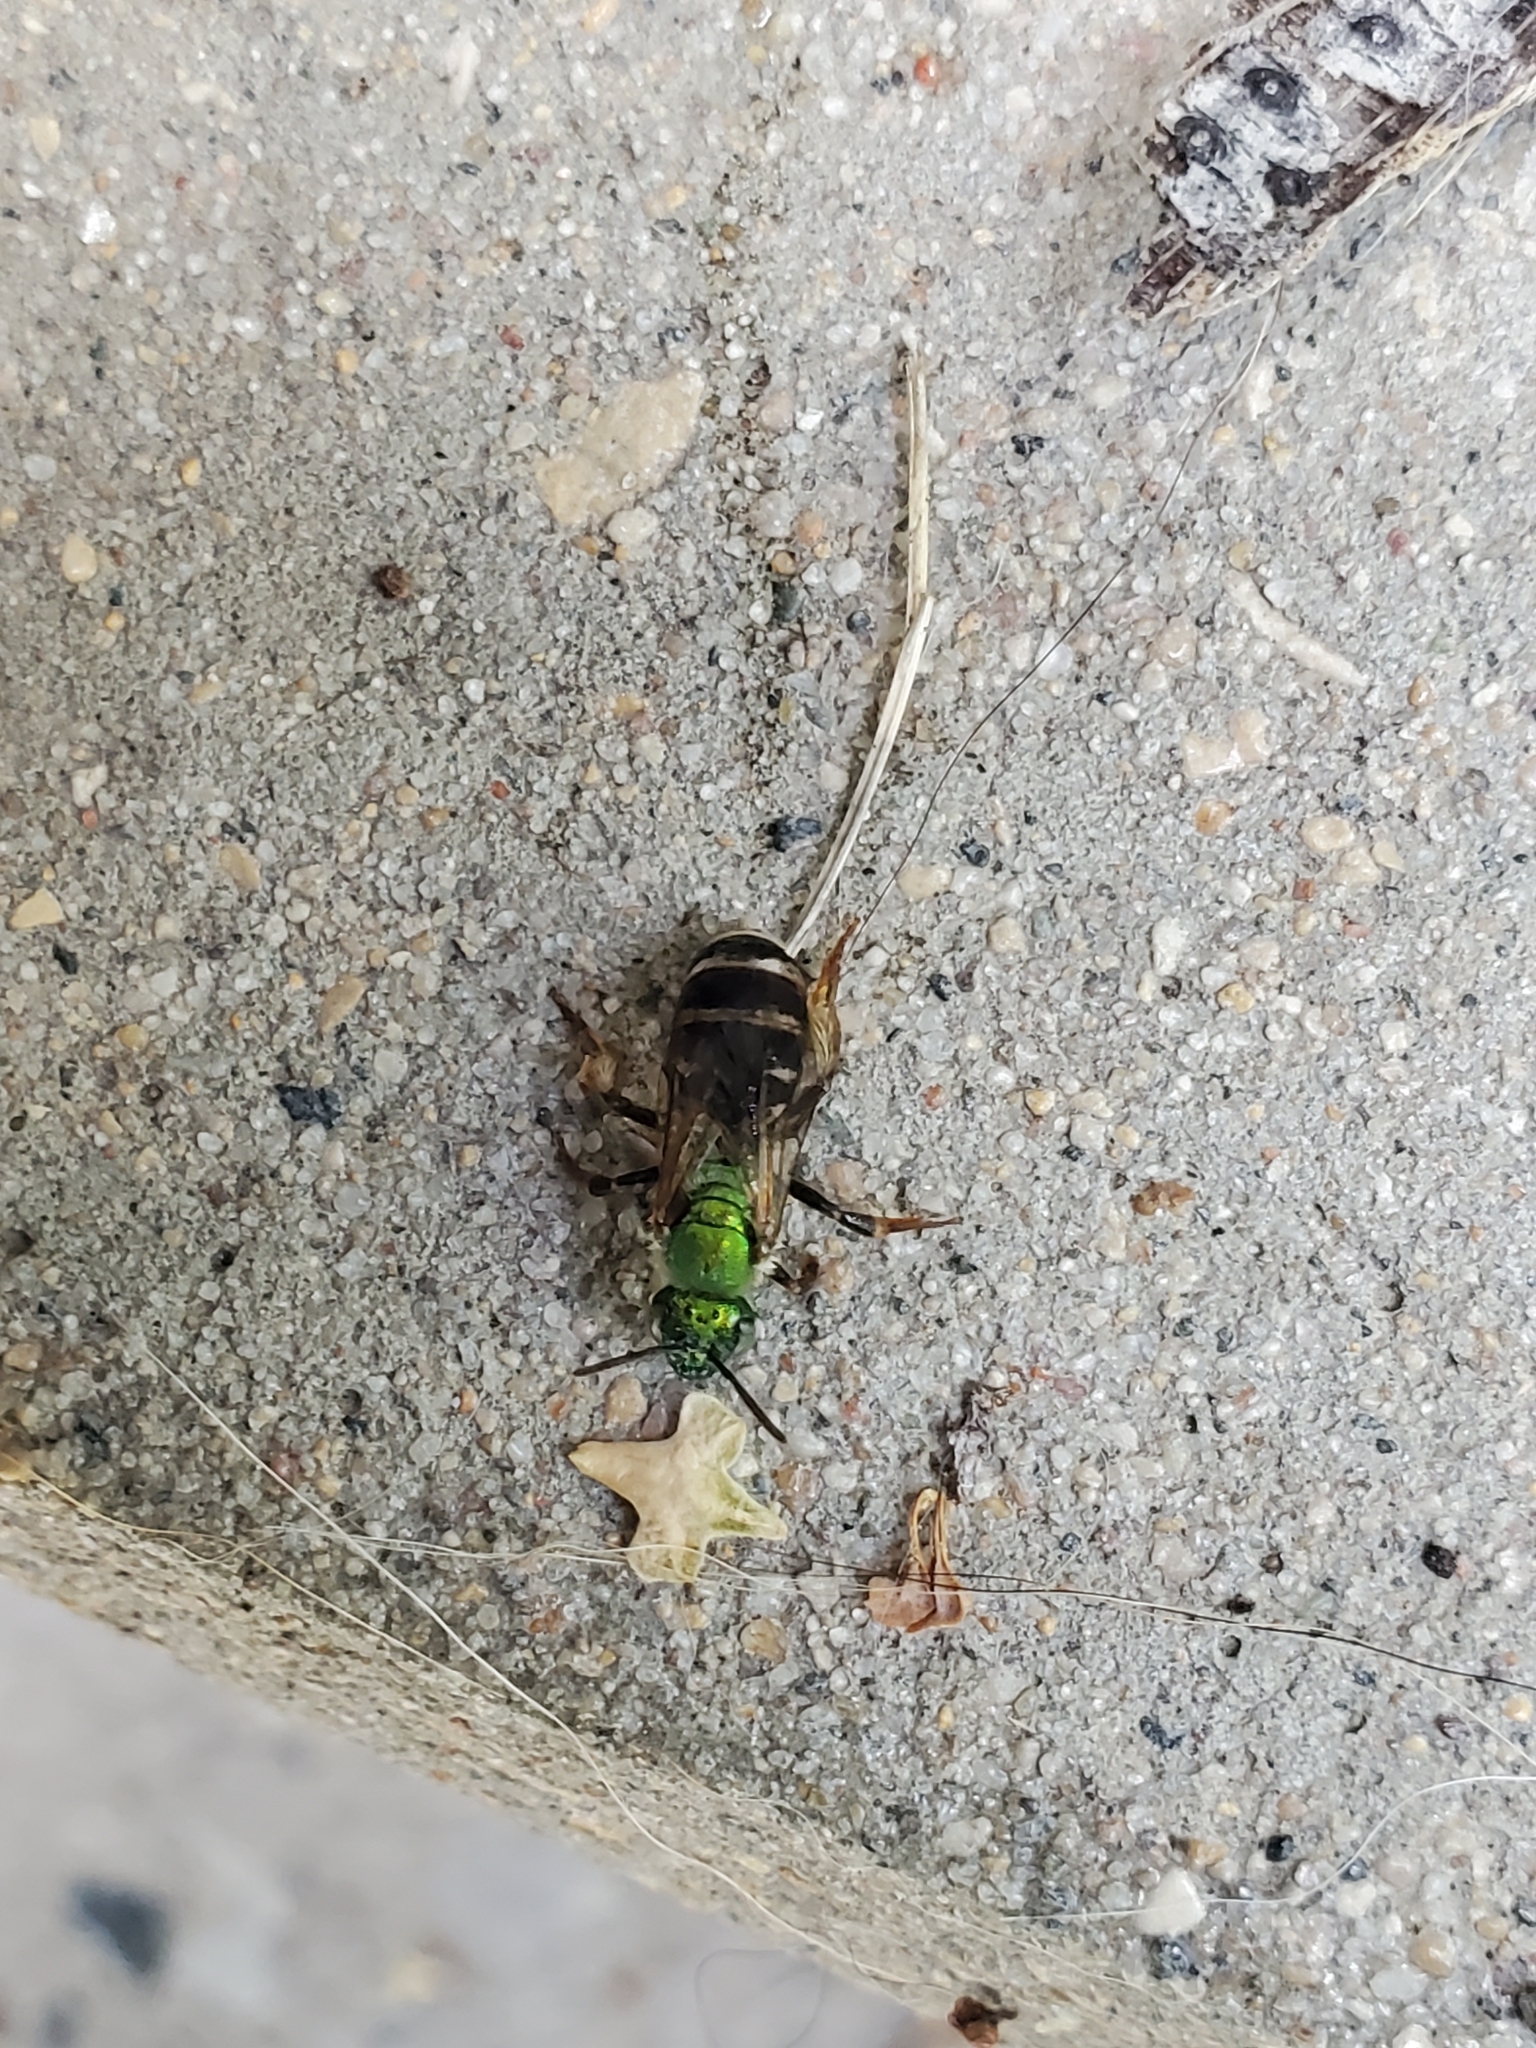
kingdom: Animalia
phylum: Arthropoda
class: Insecta
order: Hymenoptera
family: Halictidae
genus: Agapostemon
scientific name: Agapostemon virescens
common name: Bicolored striped sweat bee
